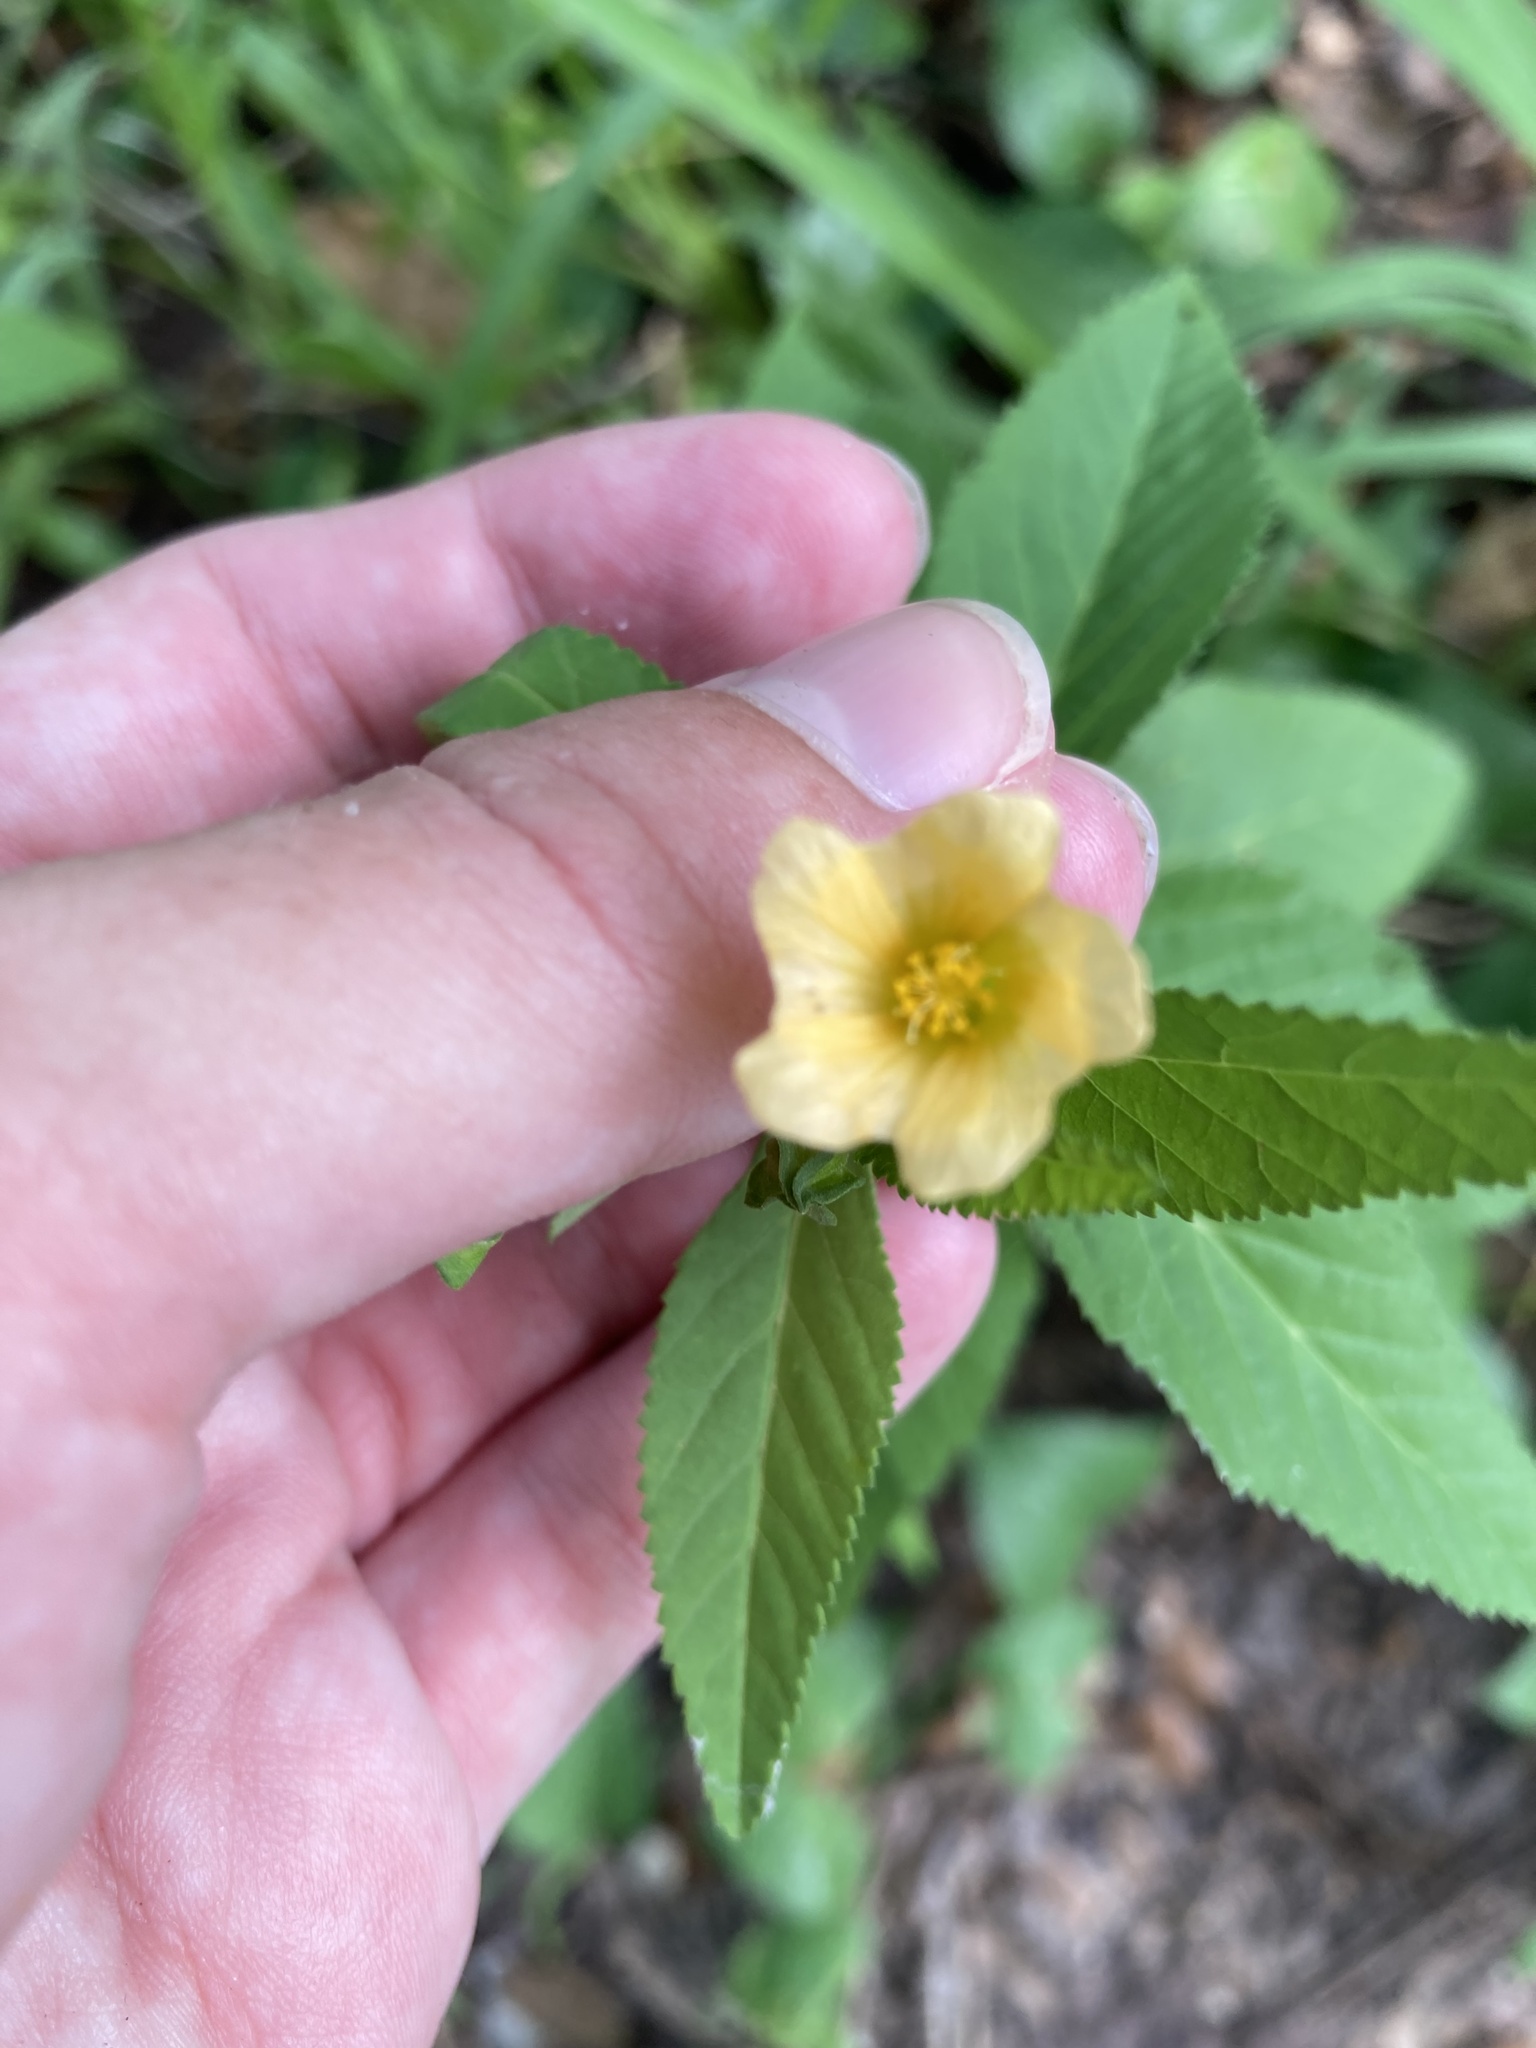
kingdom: Plantae
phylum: Tracheophyta
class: Magnoliopsida
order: Malvales
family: Malvaceae
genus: Sida
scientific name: Sida rhombifolia
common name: Queensland-hemp
